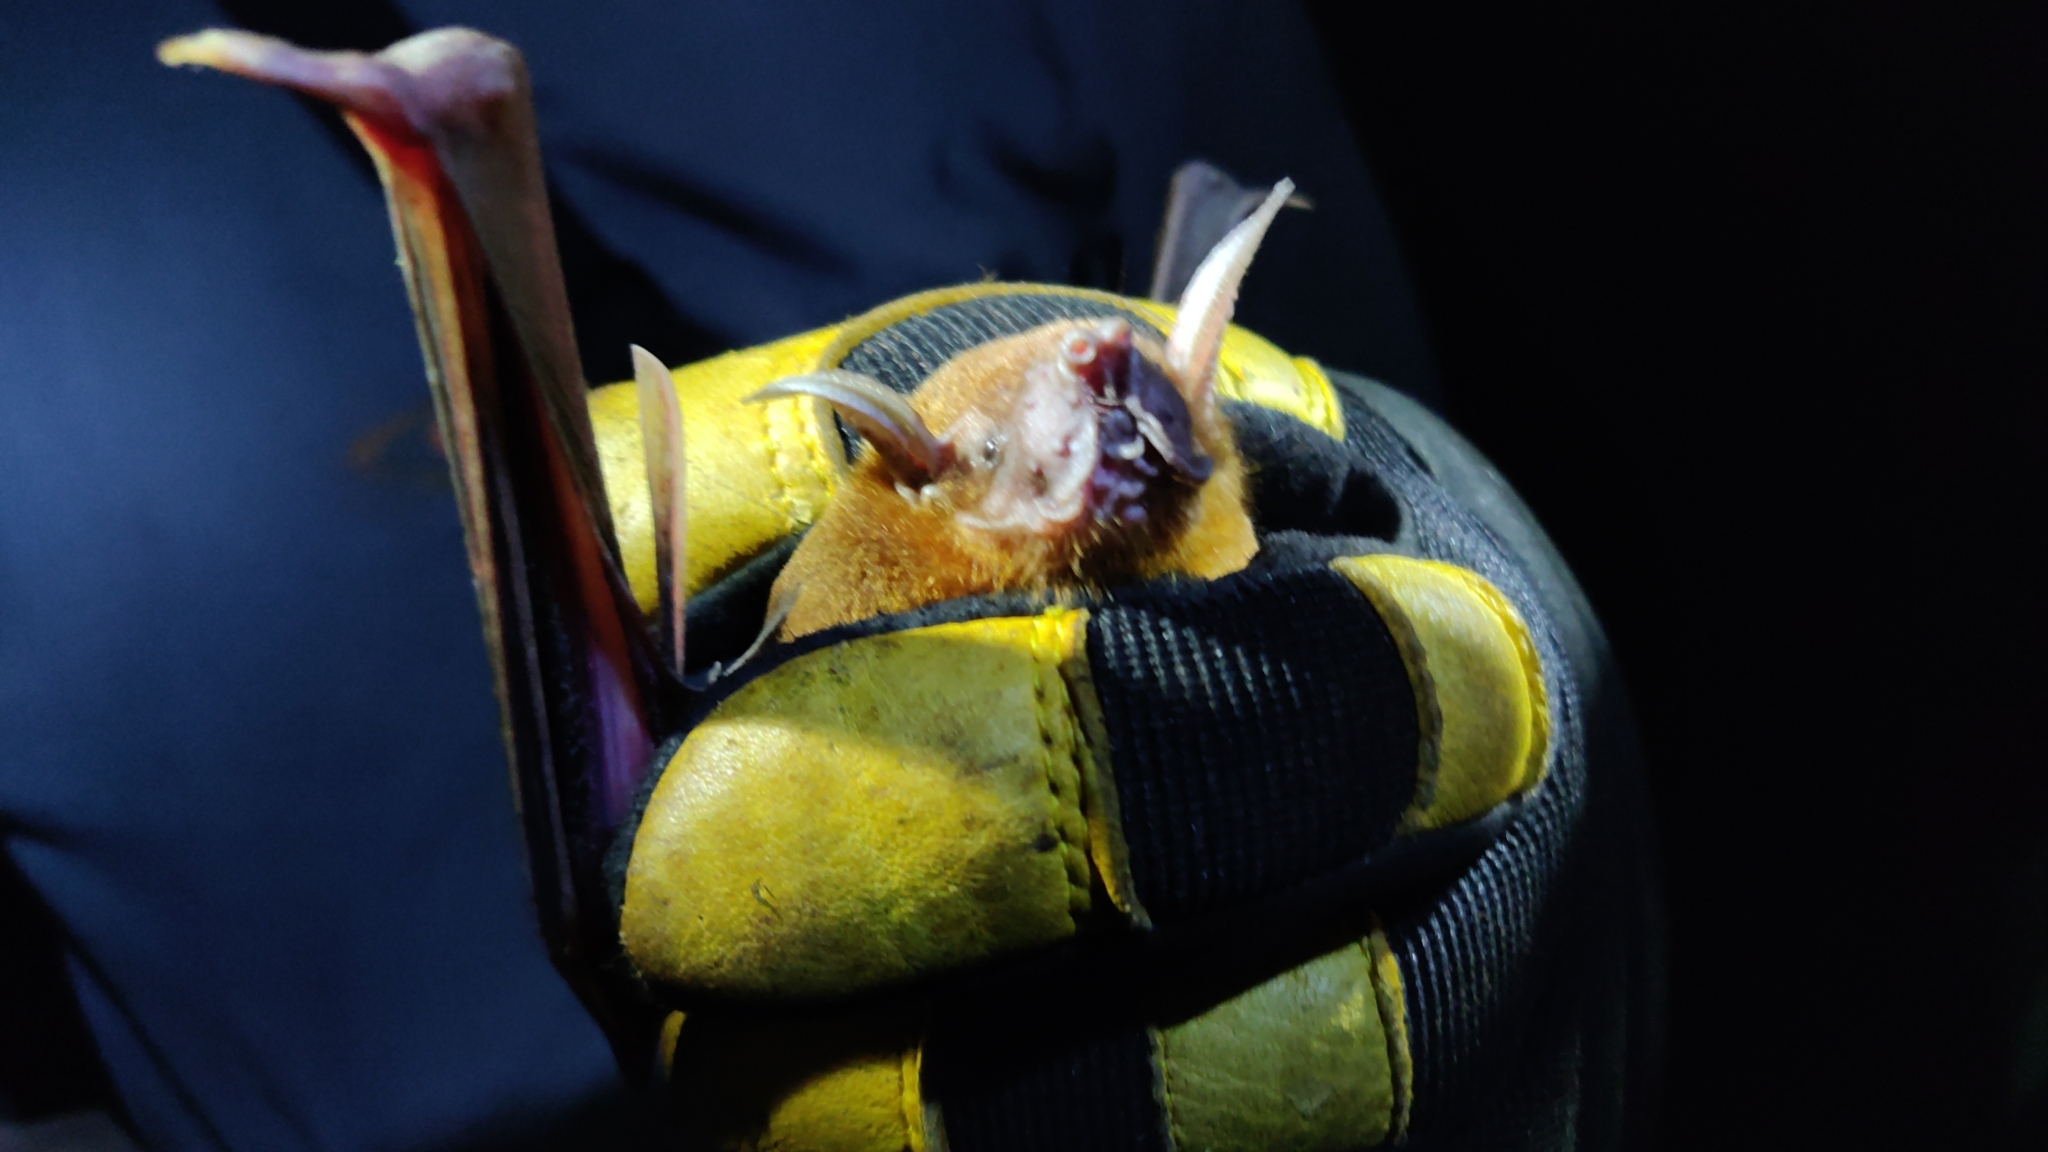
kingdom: Animalia
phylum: Chordata
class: Mammalia
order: Chiroptera
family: Noctilionidae
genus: Noctilio
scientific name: Noctilio leporinus
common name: Greater bulldog bat
